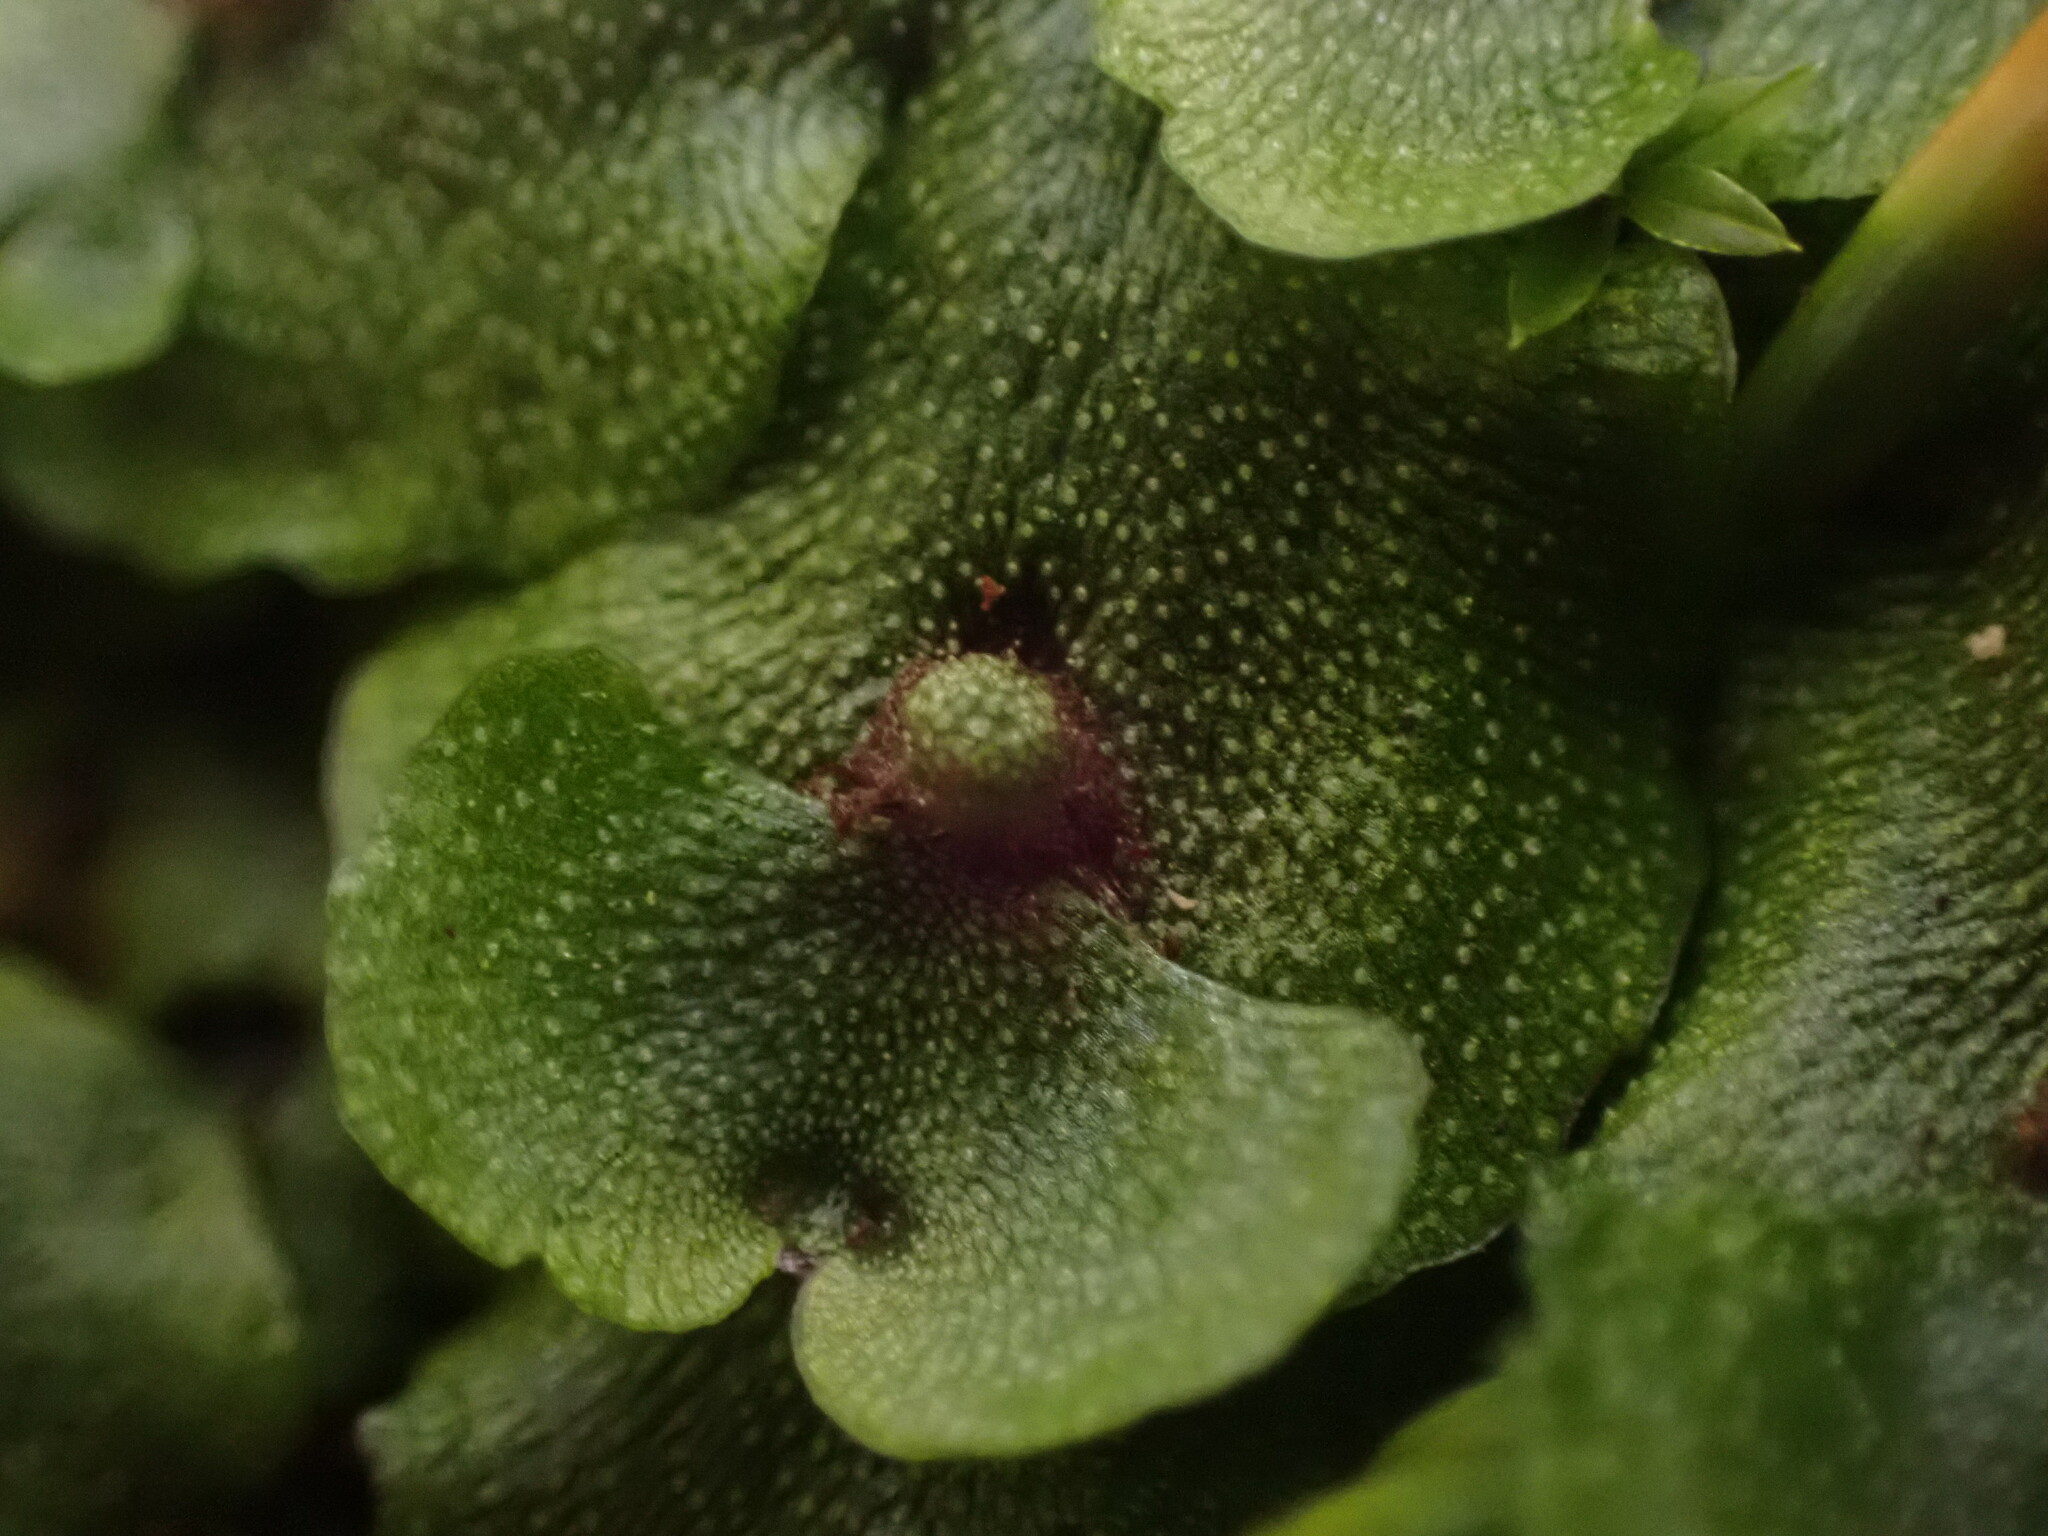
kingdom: Plantae
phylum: Marchantiophyta
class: Marchantiopsida
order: Marchantiales
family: Marchantiaceae
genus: Marchantia
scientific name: Marchantia quadrata
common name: Narrow mushroom-headed liverwort
